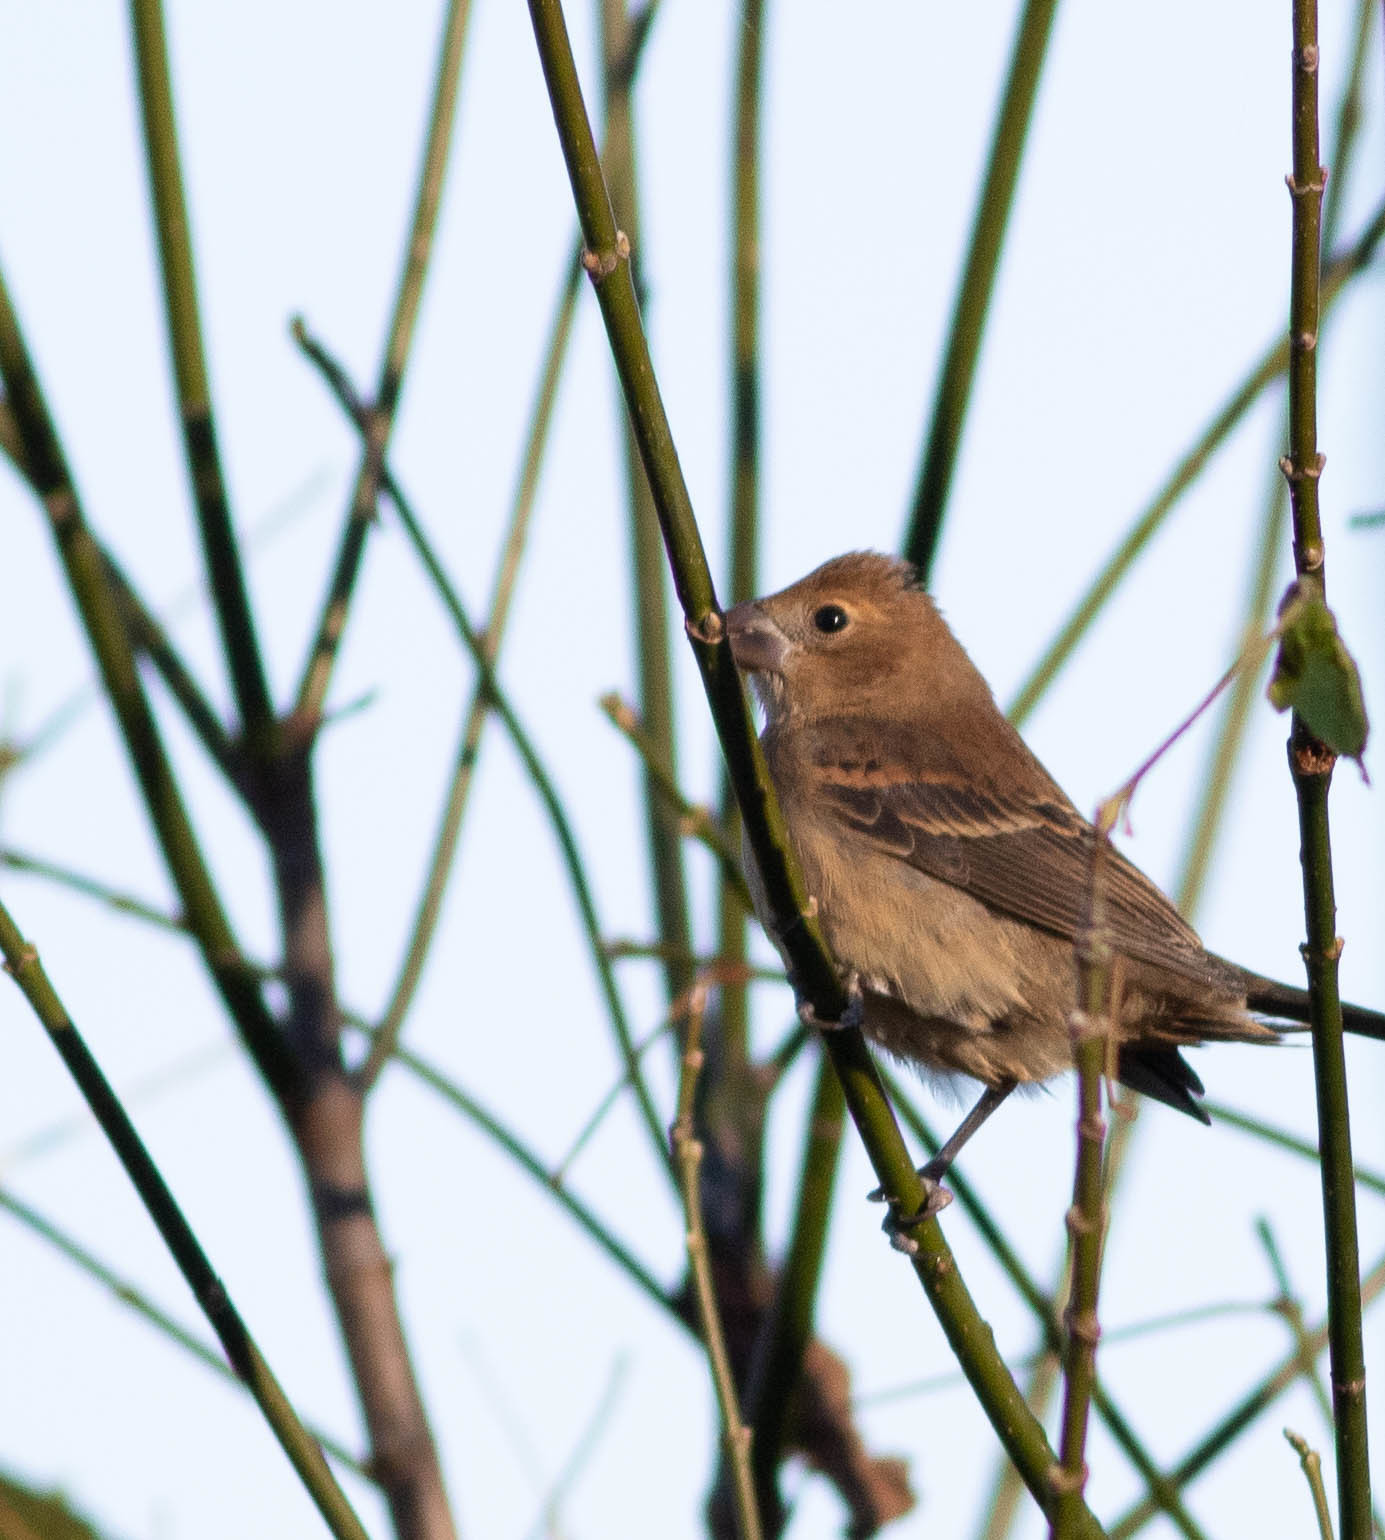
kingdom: Animalia
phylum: Chordata
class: Aves
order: Passeriformes
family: Cardinalidae
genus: Passerina
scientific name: Passerina cyanea
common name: Indigo bunting
